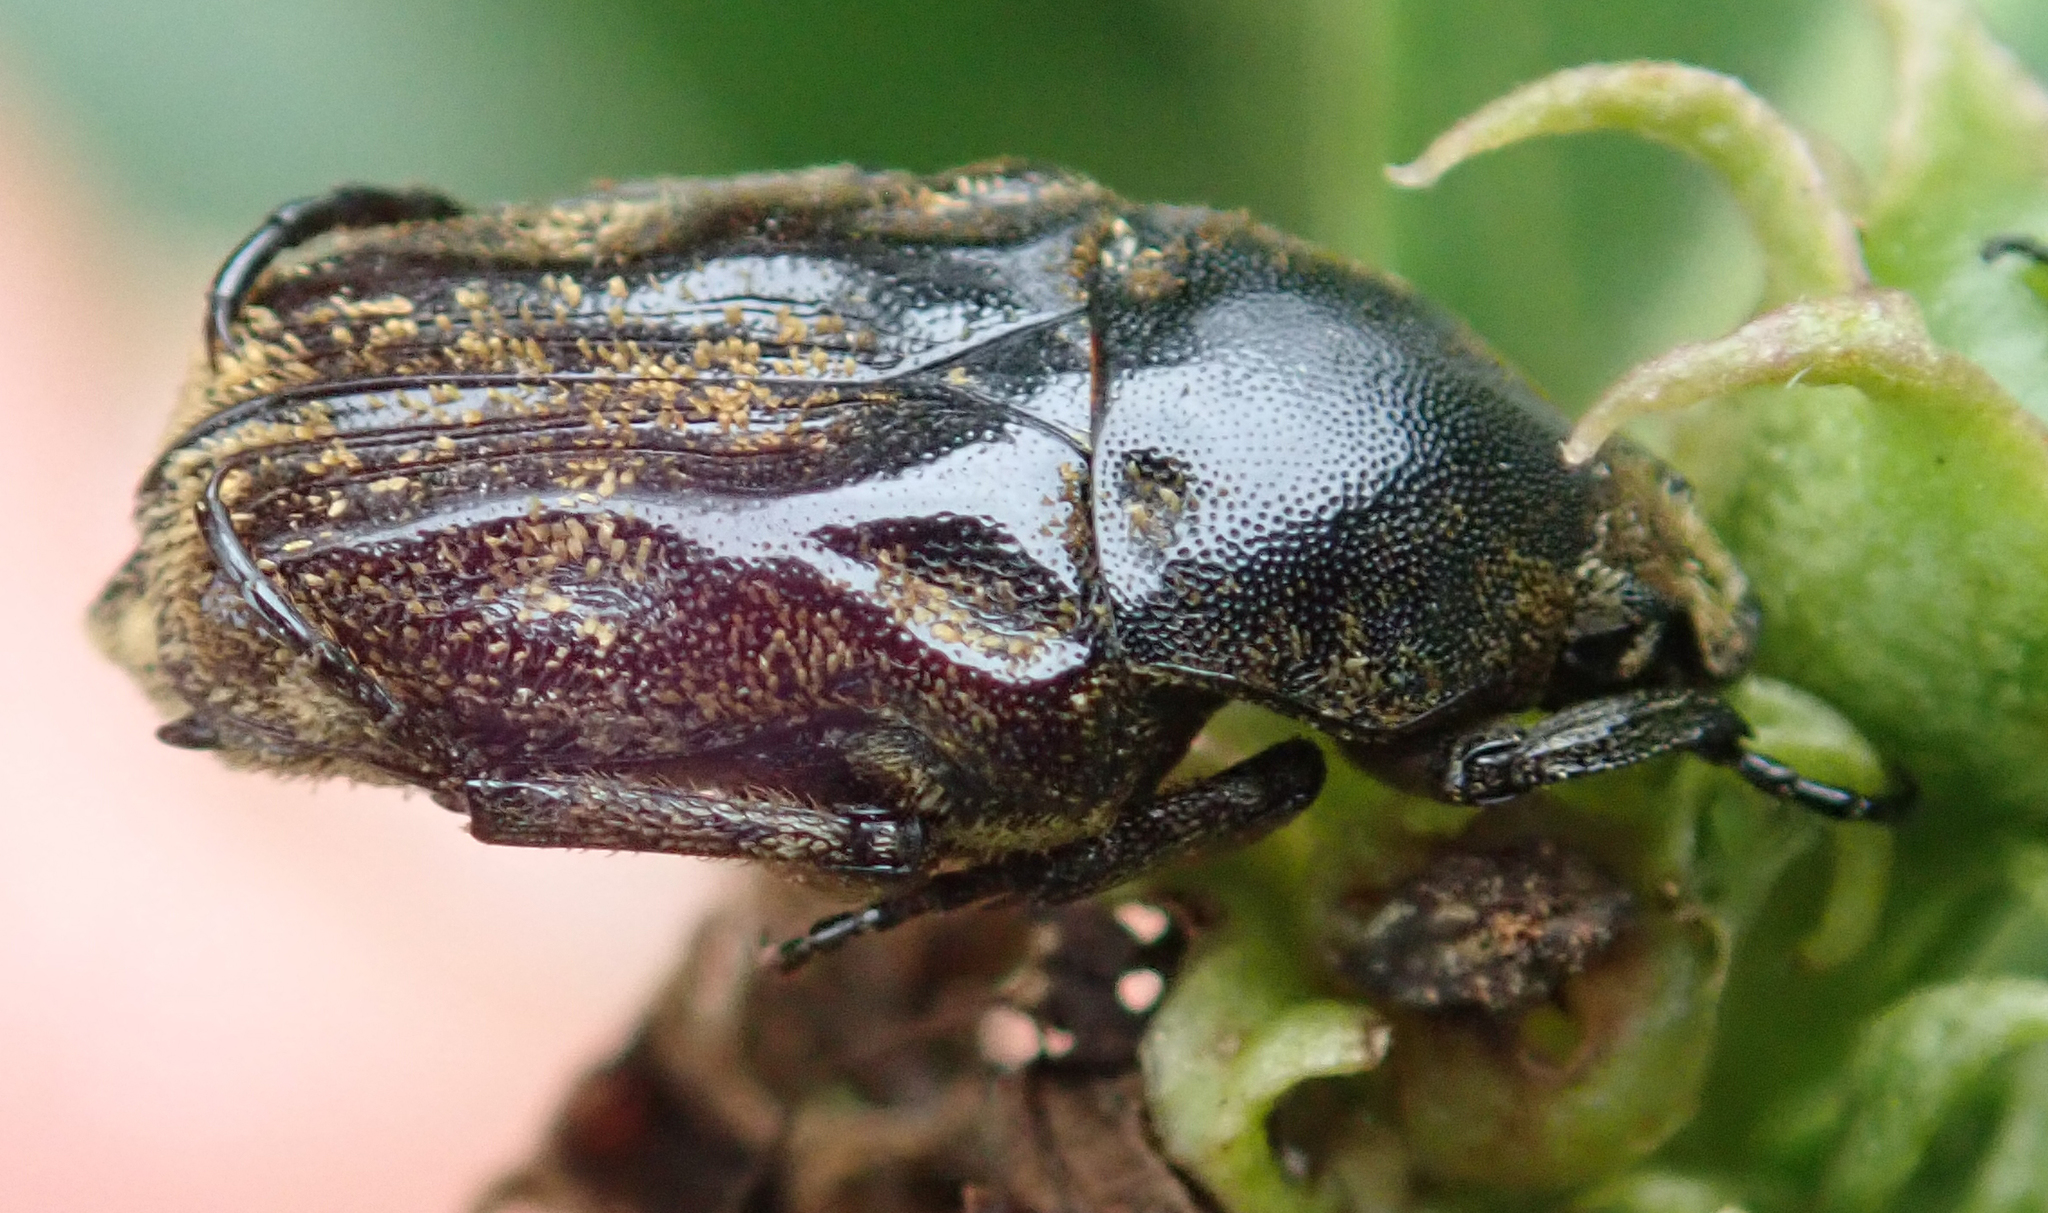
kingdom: Animalia
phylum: Arthropoda
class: Insecta
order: Coleoptera
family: Scarabaeidae
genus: Cymophorus
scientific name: Cymophorus undatus
